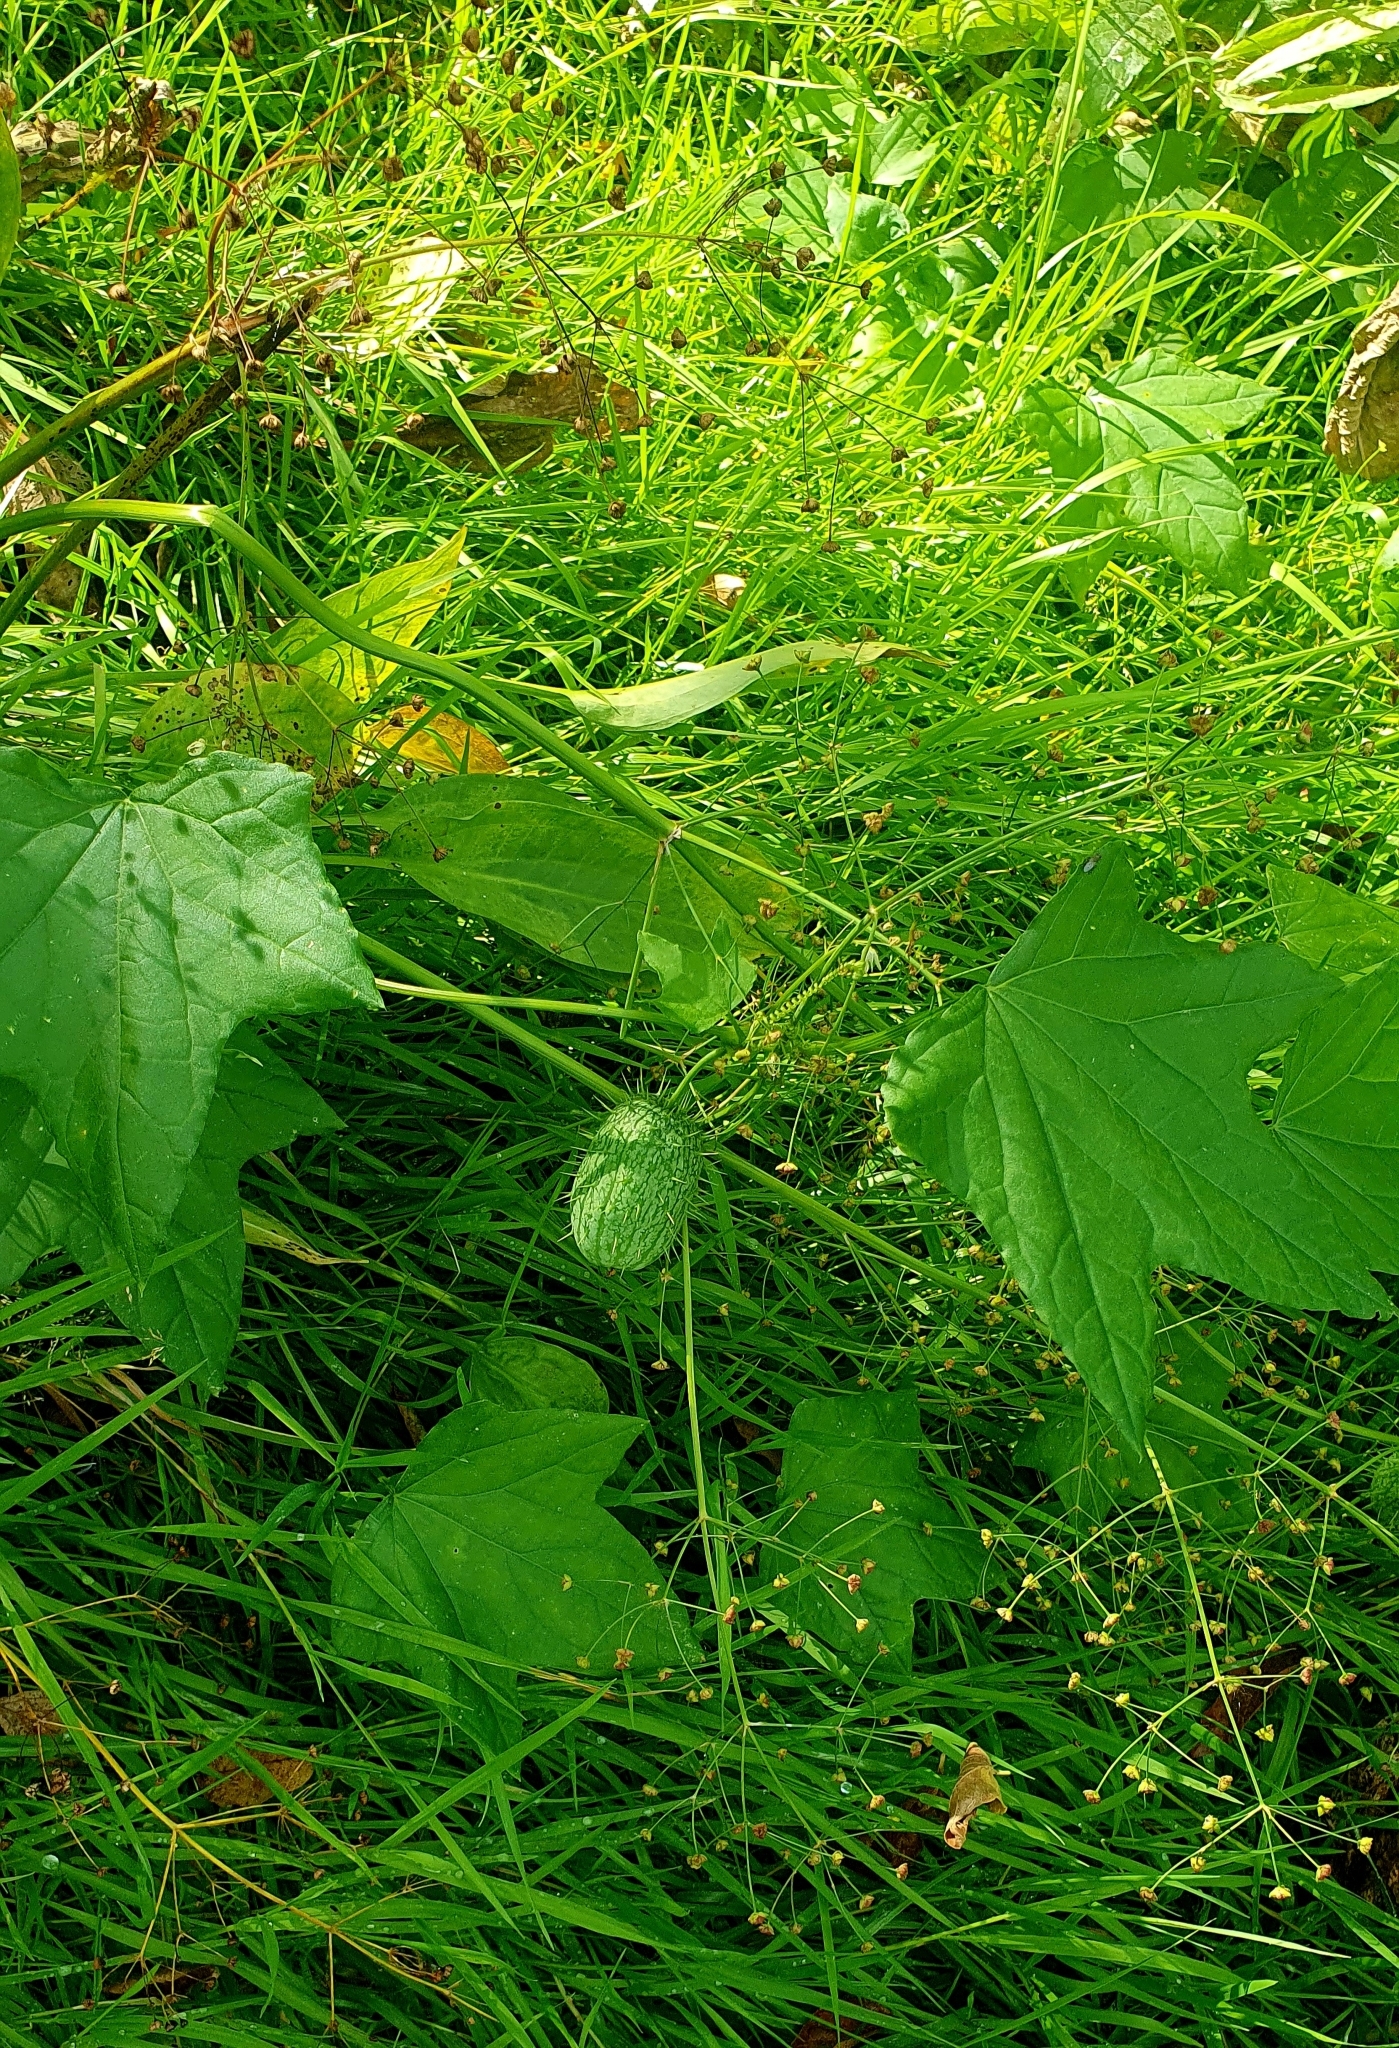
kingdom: Plantae
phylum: Tracheophyta
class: Magnoliopsida
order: Cucurbitales
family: Cucurbitaceae
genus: Echinocystis
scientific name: Echinocystis lobata
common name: Wild cucumber
